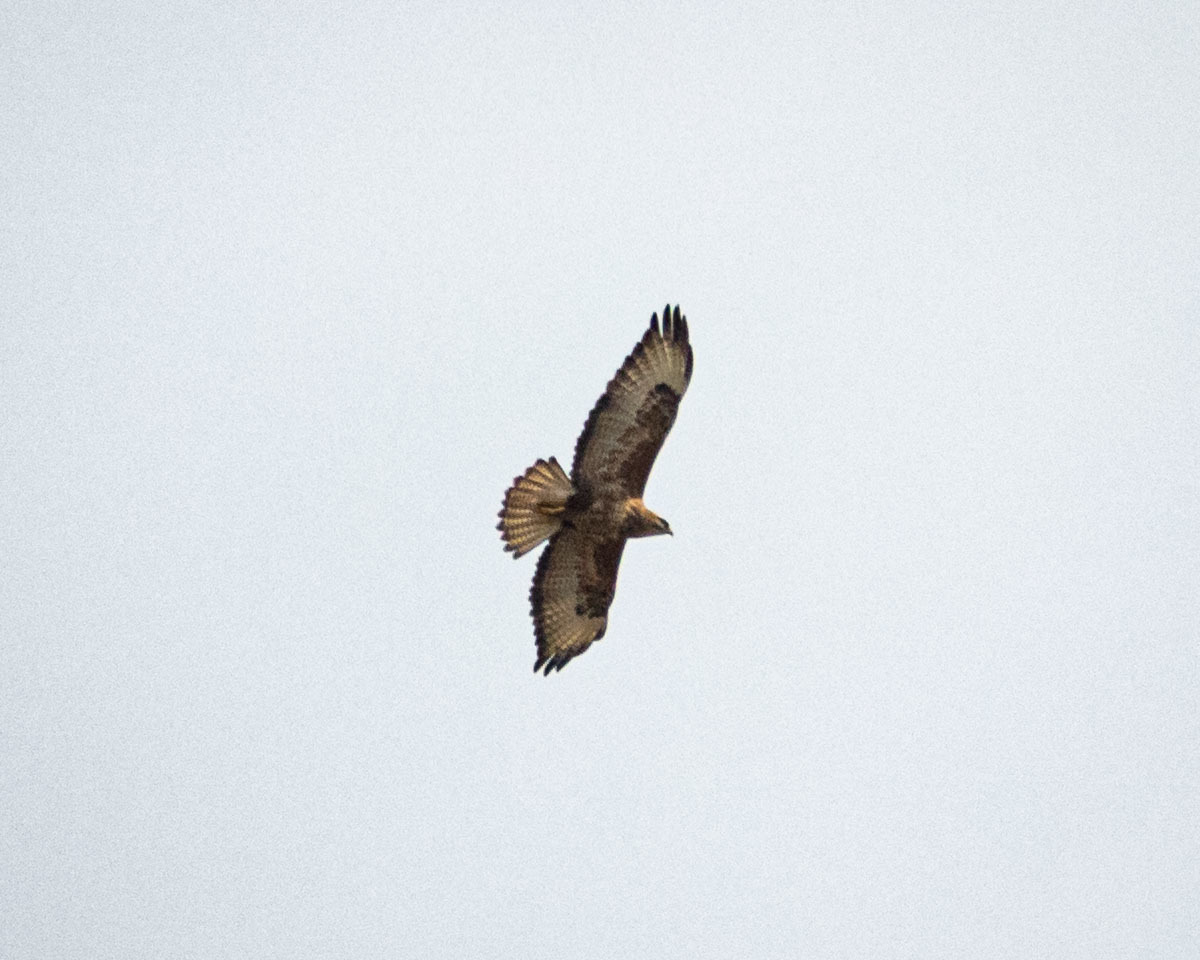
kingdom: Animalia
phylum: Chordata
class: Aves
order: Accipitriformes
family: Accipitridae
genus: Buteo
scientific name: Buteo buteo
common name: Common buzzard
